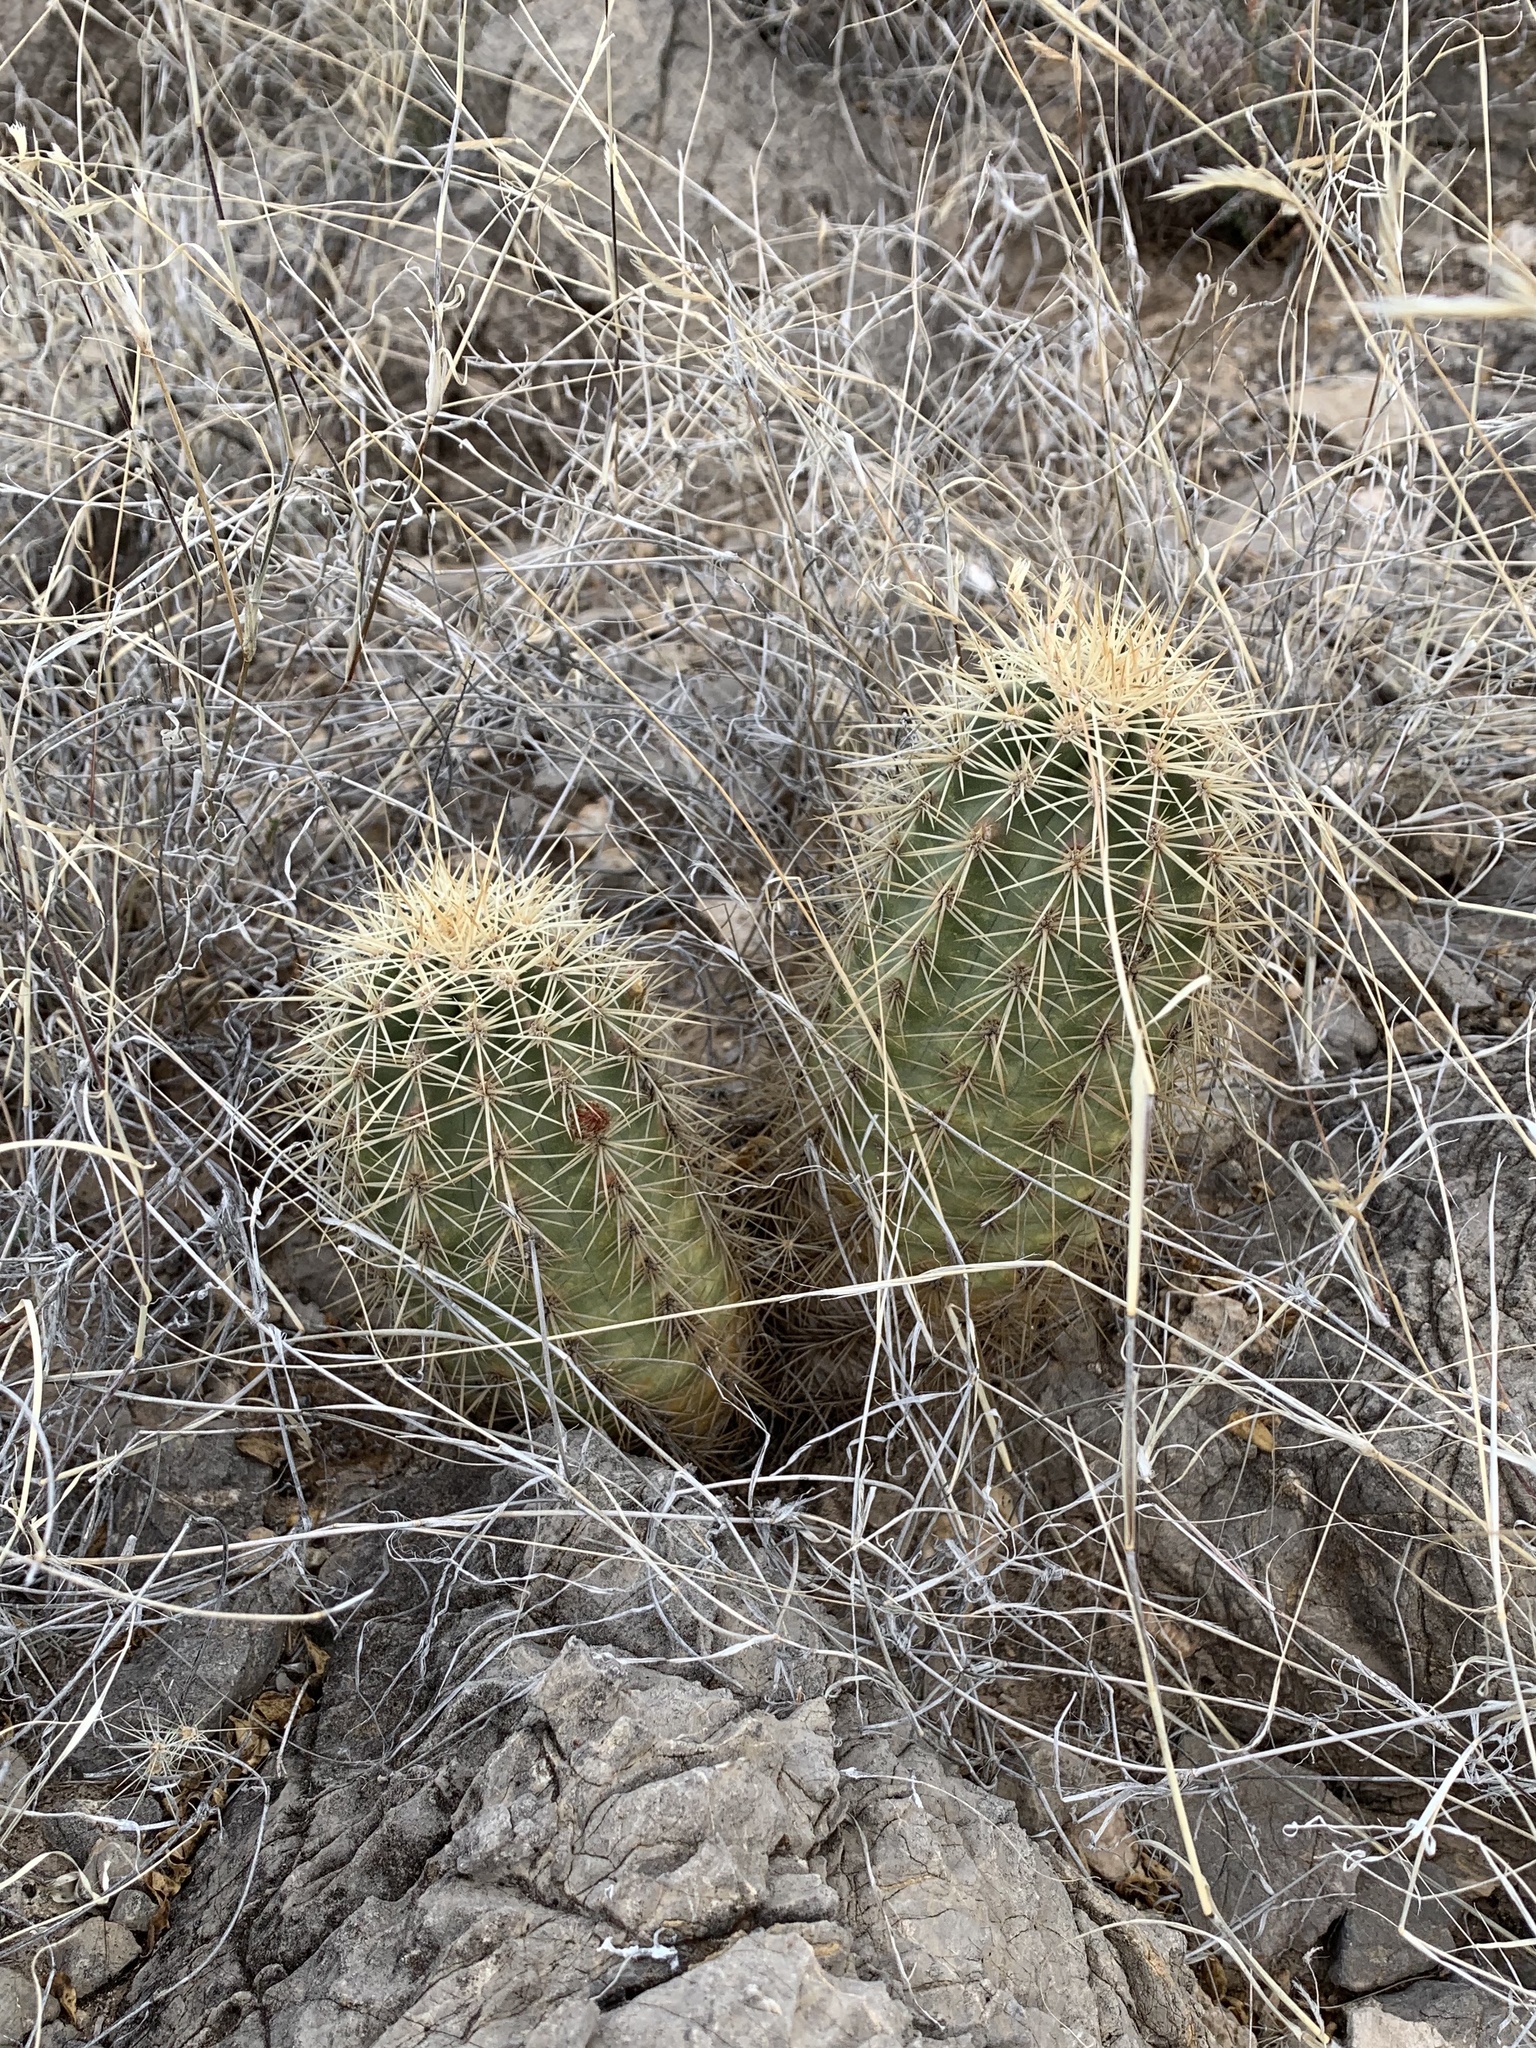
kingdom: Plantae
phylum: Tracheophyta
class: Magnoliopsida
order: Caryophyllales
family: Cactaceae
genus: Echinocereus
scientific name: Echinocereus coccineus
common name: Scarlet hedgehog cactus
